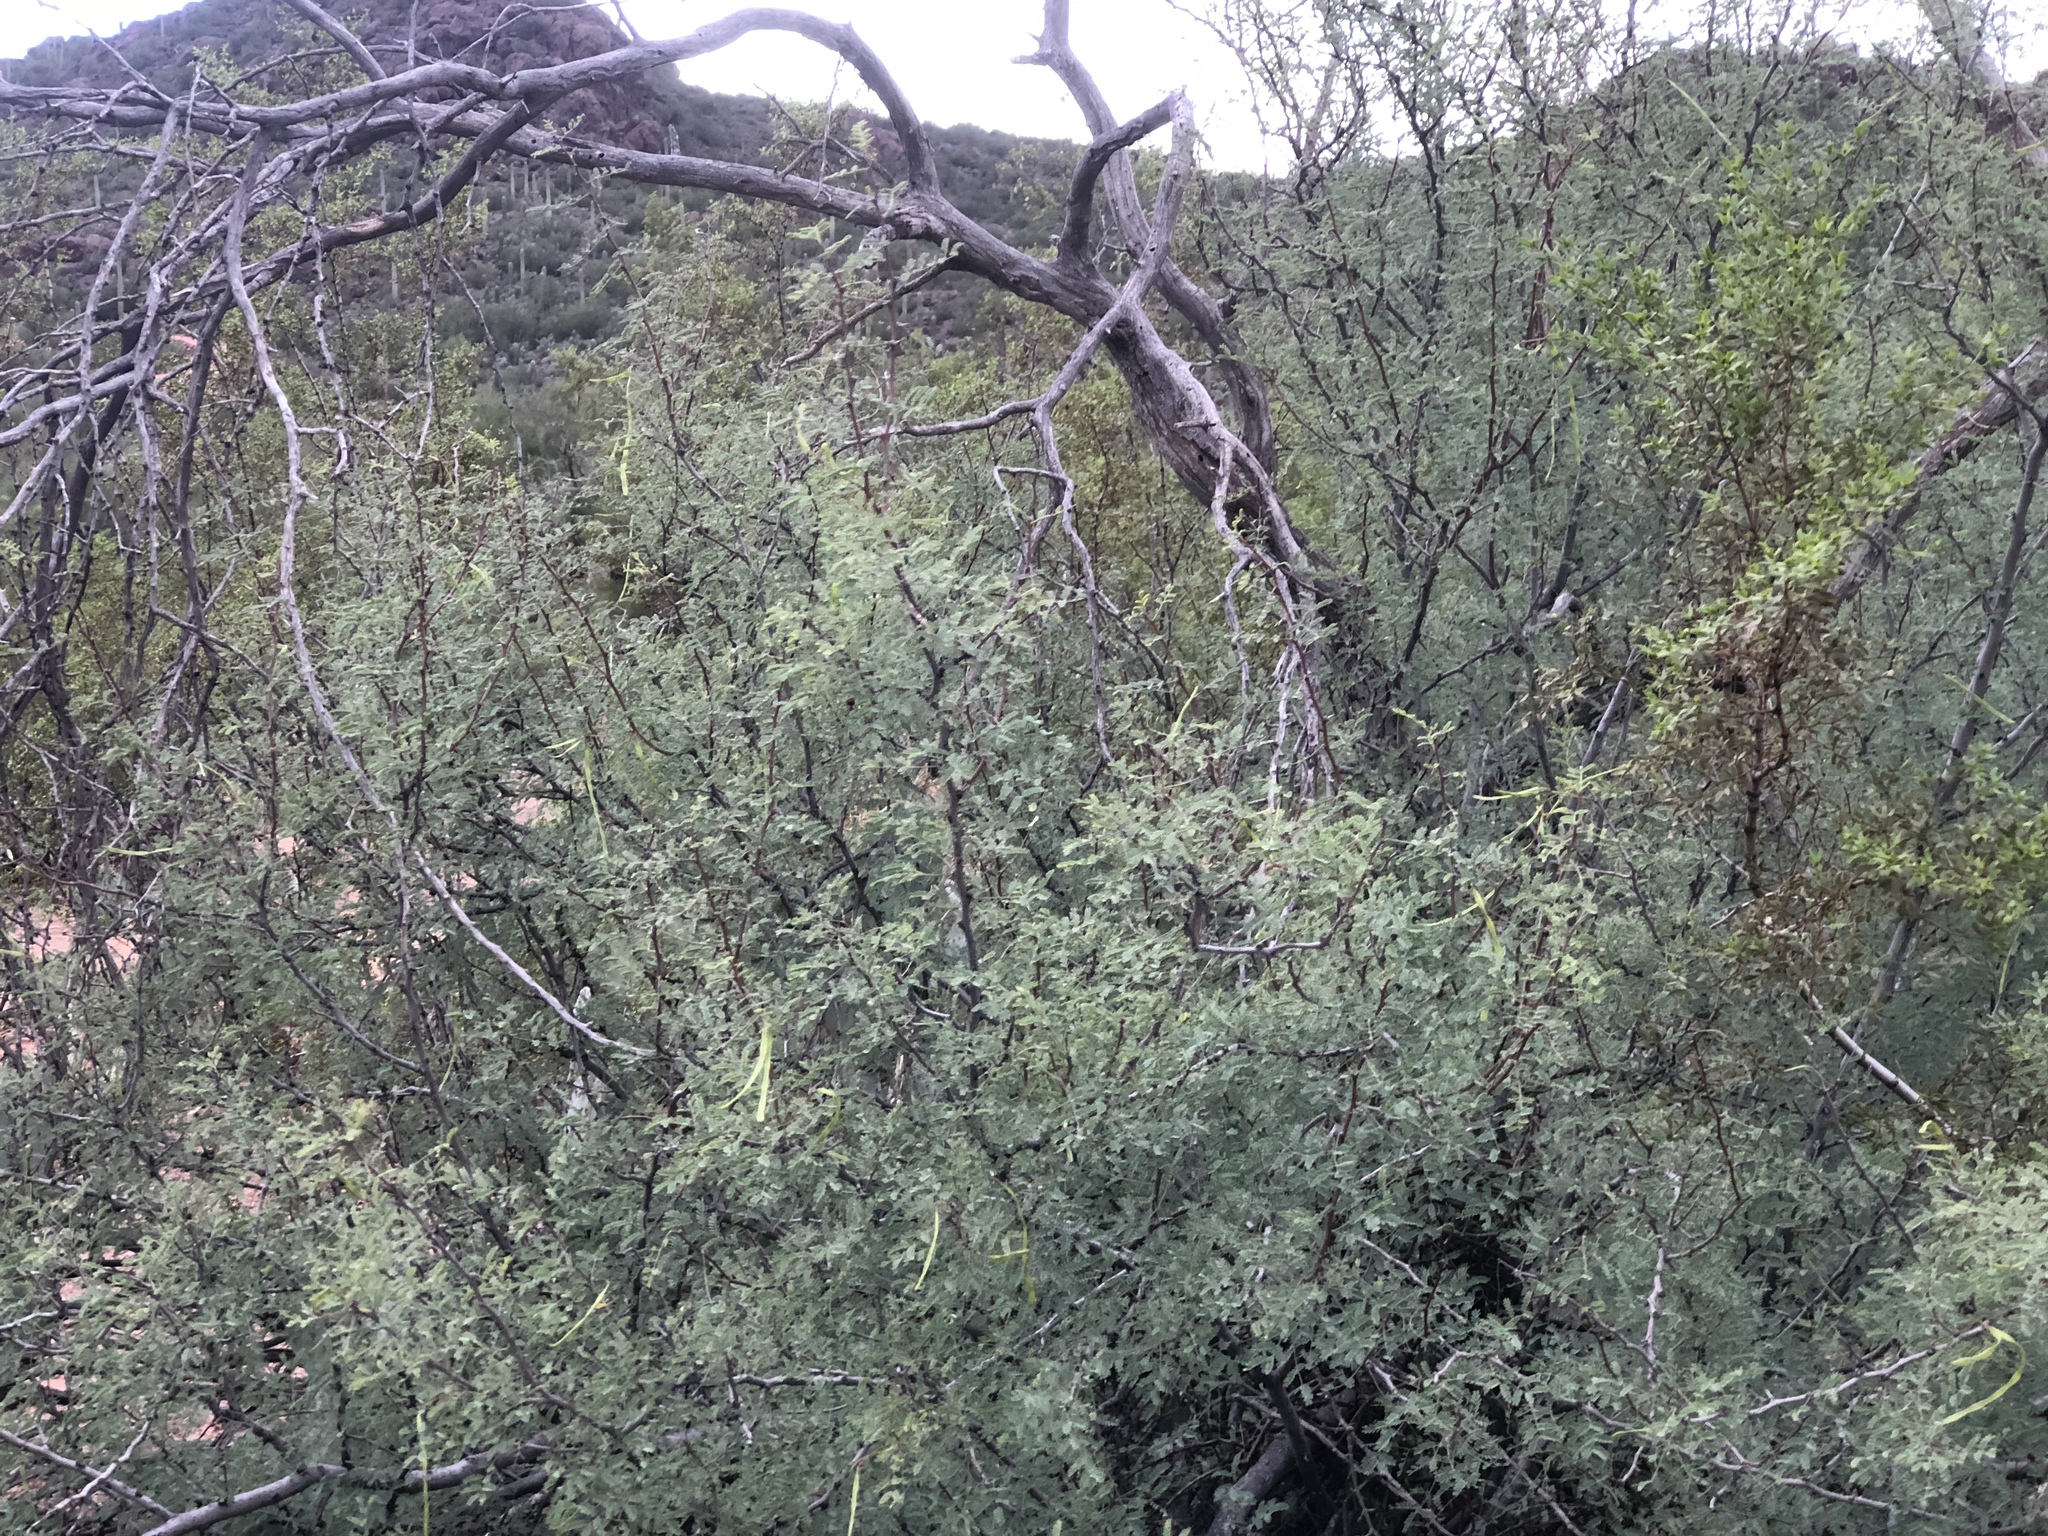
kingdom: Plantae
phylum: Tracheophyta
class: Magnoliopsida
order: Fabales
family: Fabaceae
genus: Vachellia
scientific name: Vachellia constricta
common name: Mescat acacia
